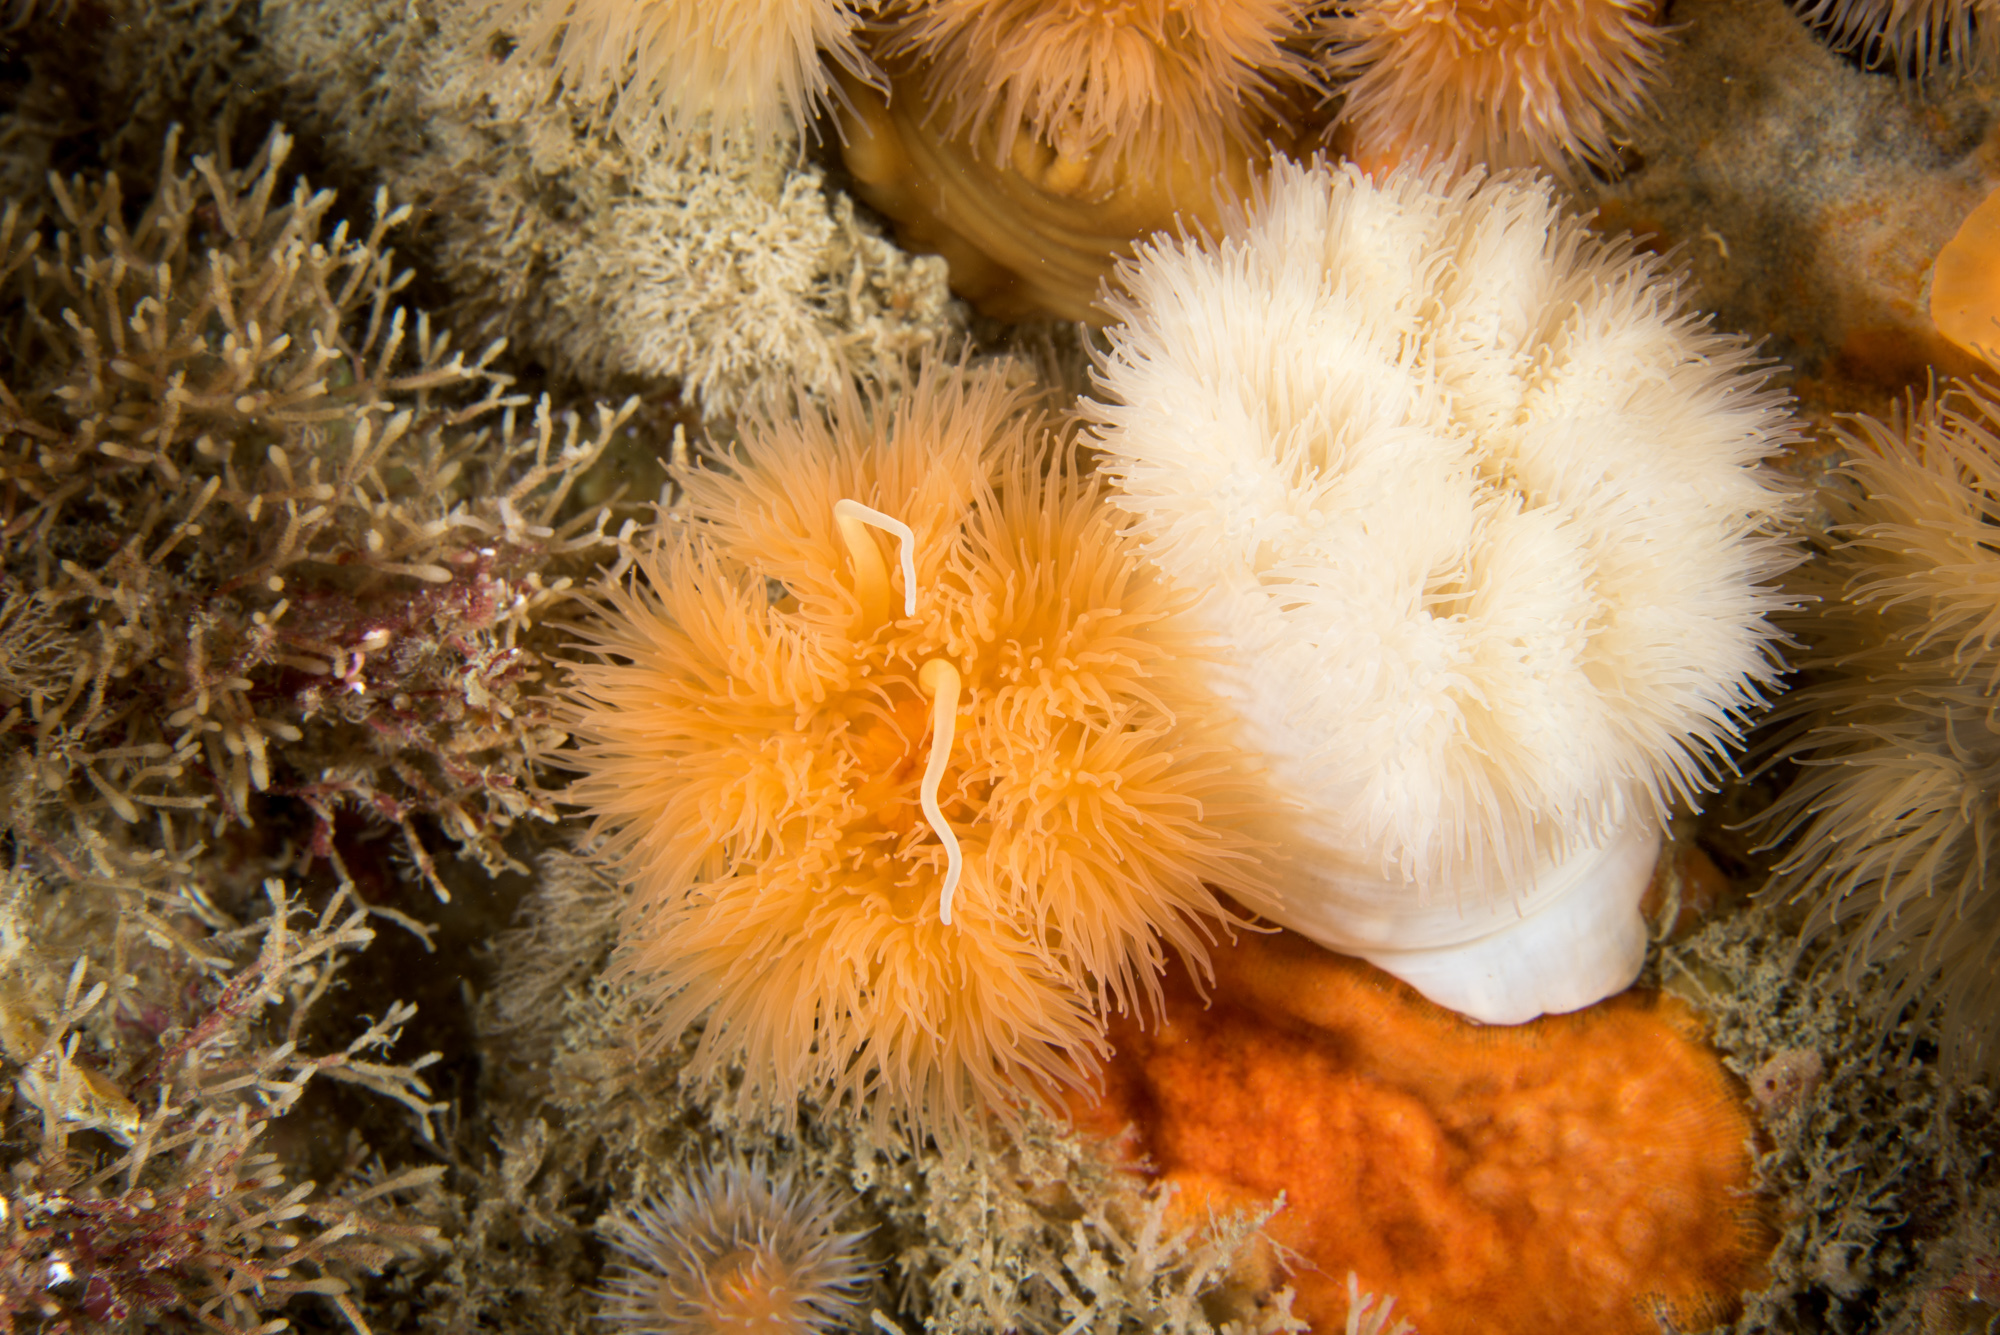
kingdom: Animalia
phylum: Cnidaria
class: Anthozoa
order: Actiniaria
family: Metridiidae
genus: Metridium
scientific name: Metridium senile
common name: Clonal plumose anemone
